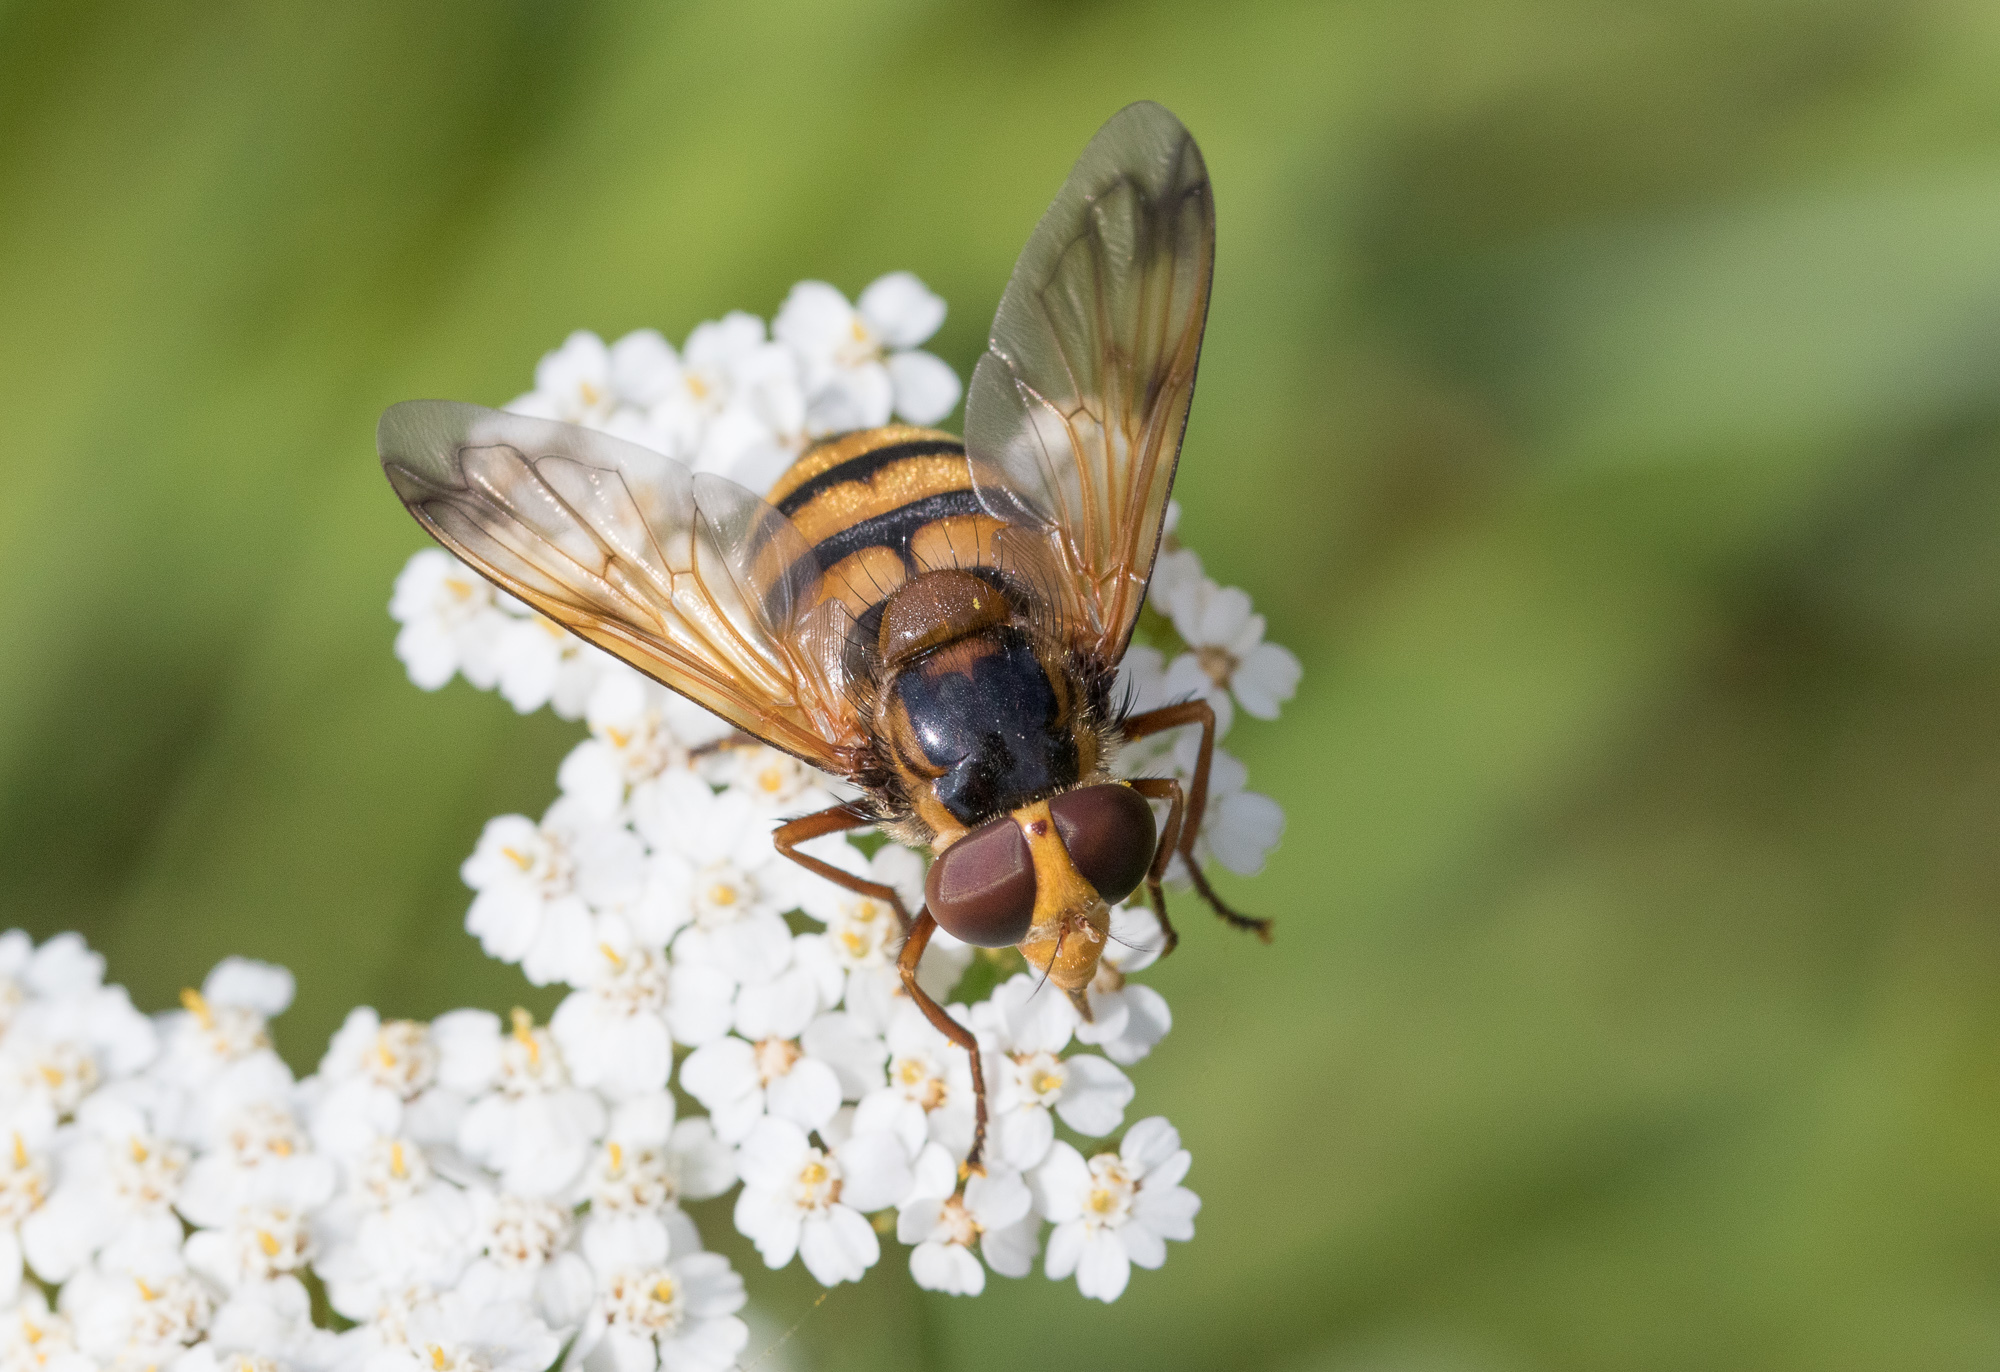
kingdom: Animalia
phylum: Arthropoda
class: Insecta
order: Diptera
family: Syrphidae
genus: Volucella
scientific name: Volucella inanis
